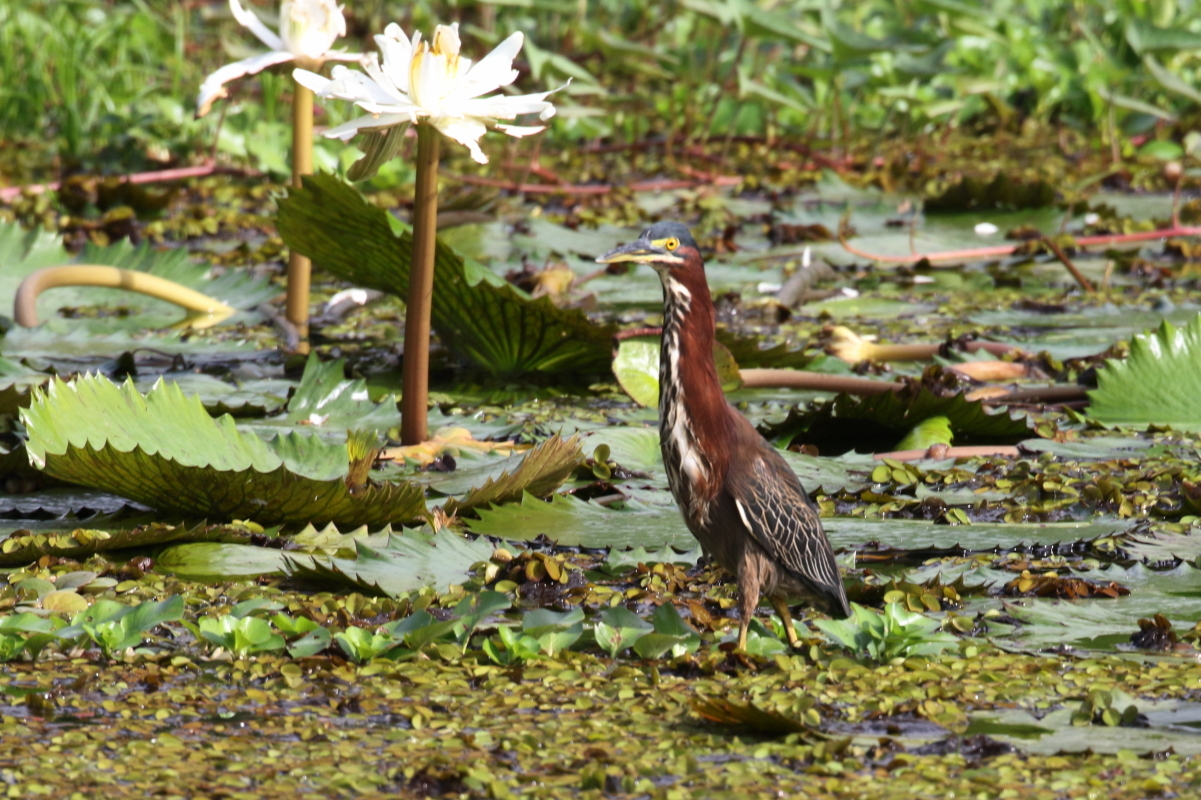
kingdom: Animalia
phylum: Chordata
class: Aves
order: Pelecaniformes
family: Ardeidae
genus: Butorides
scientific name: Butorides virescens
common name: Green heron
